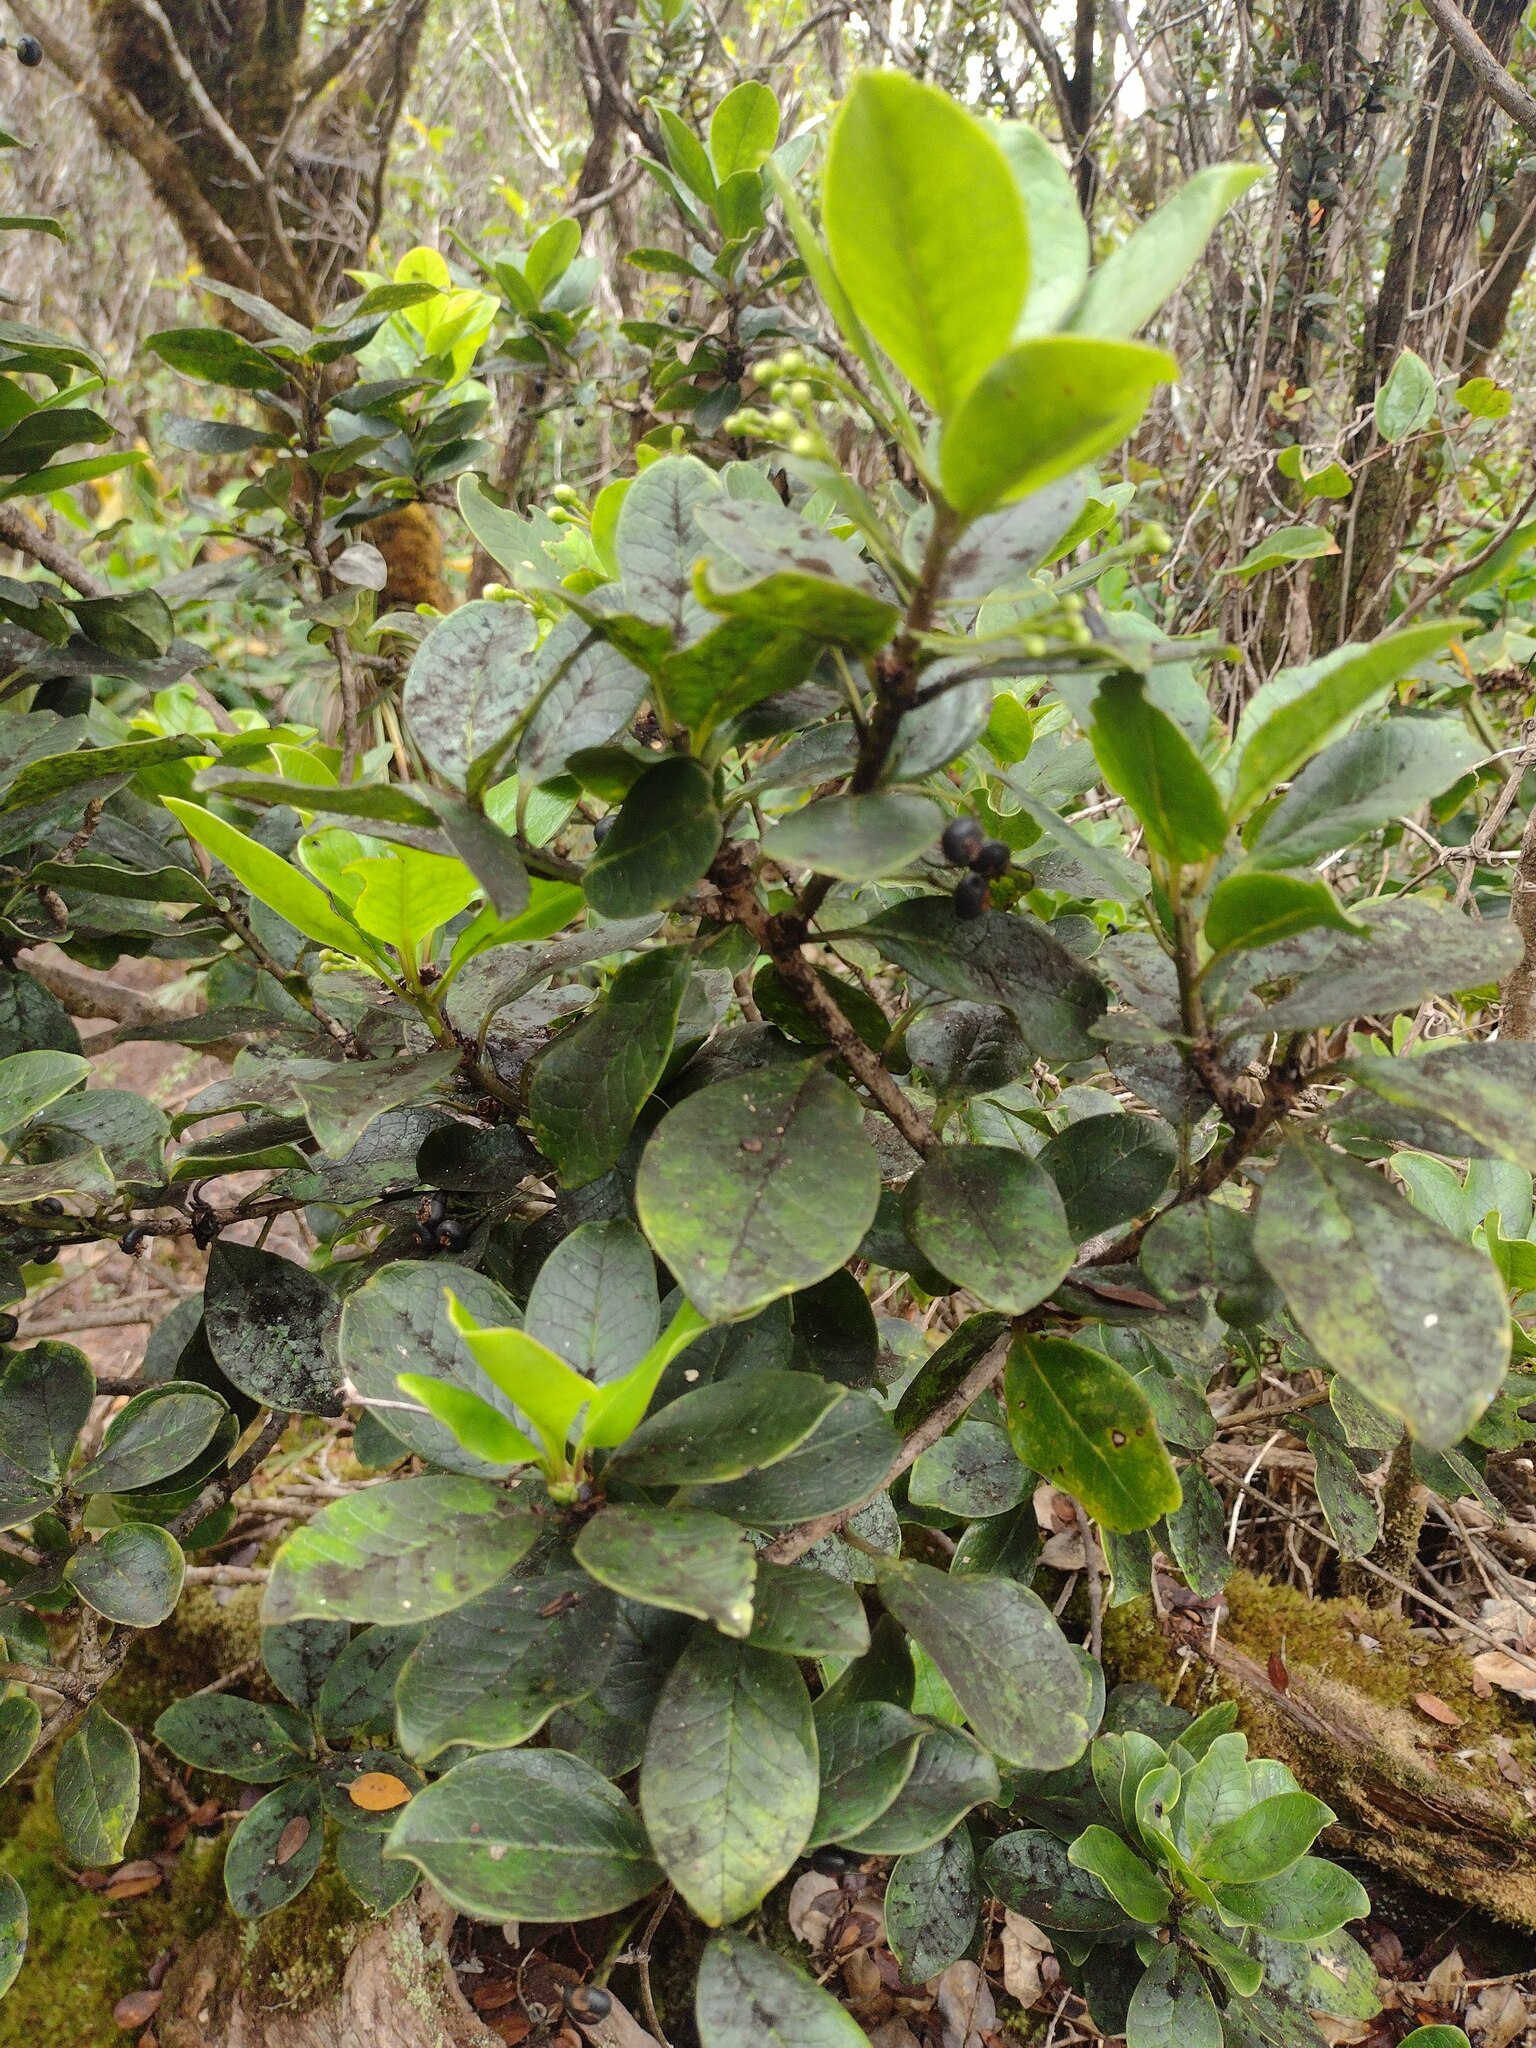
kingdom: Plantae
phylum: Tracheophyta
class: Magnoliopsida
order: Aquifoliales
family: Aquifoliaceae
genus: Ilex
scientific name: Ilex anomala
